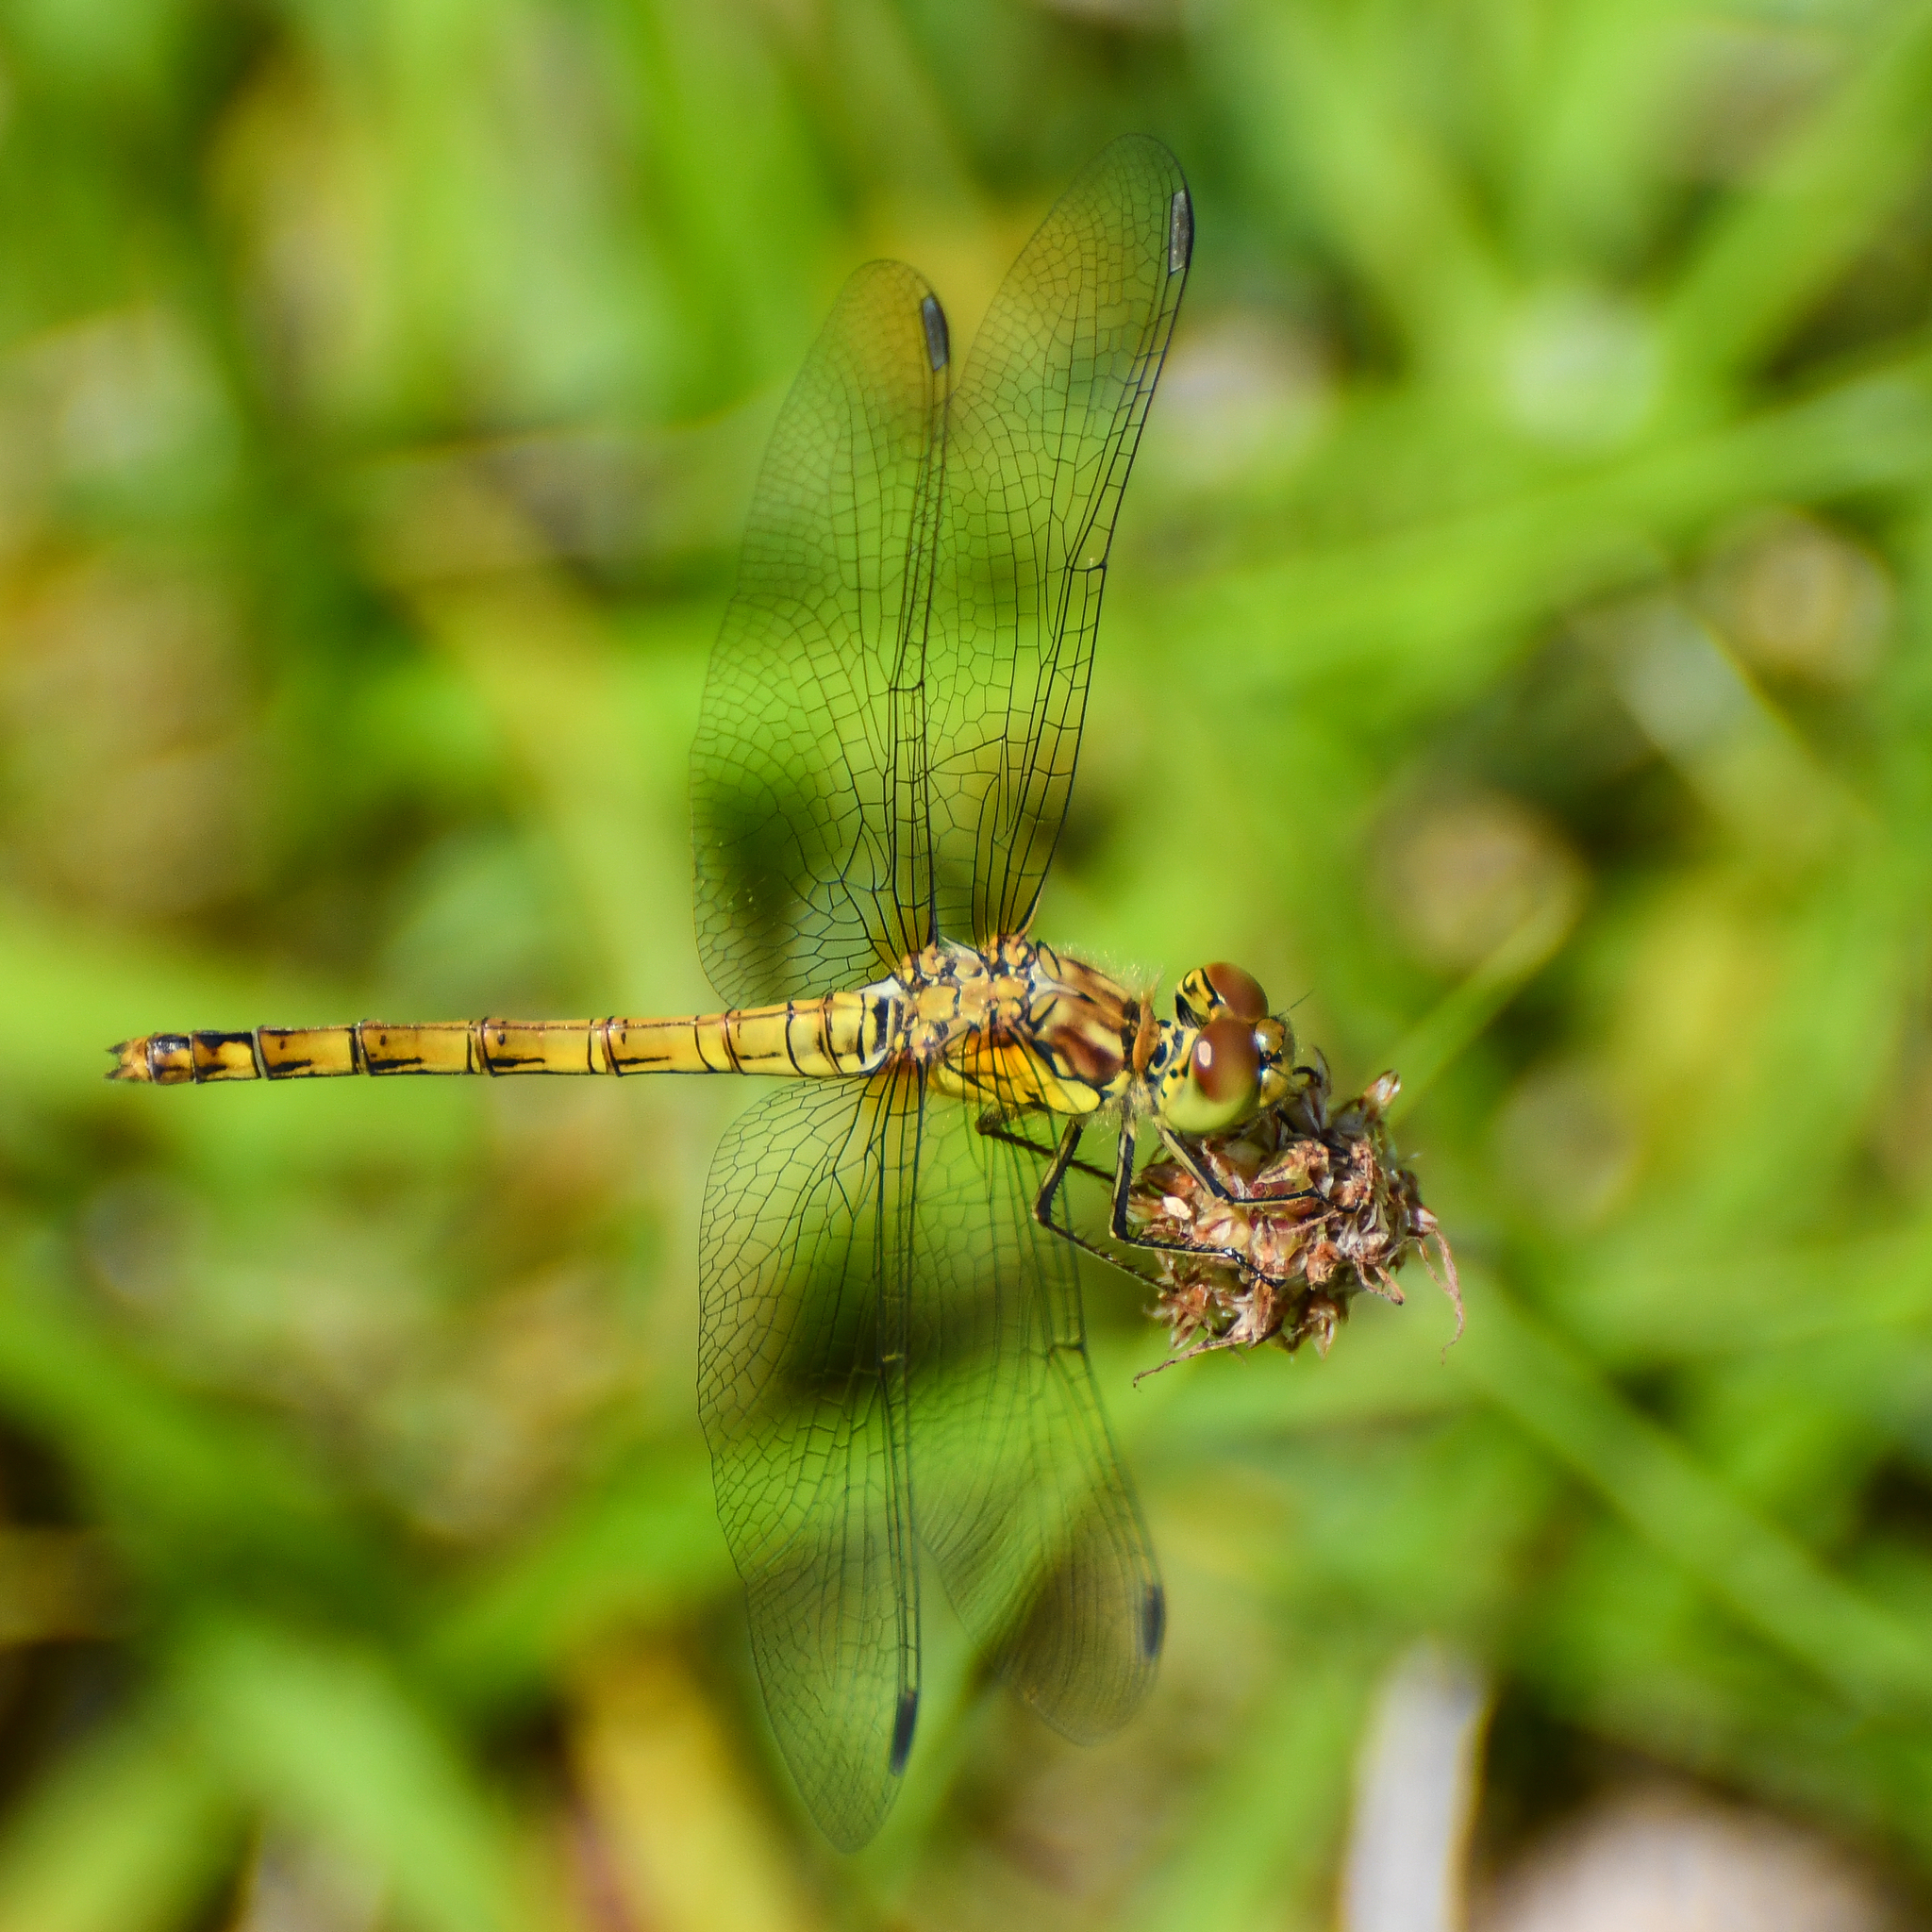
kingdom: Animalia
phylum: Arthropoda
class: Insecta
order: Odonata
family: Libellulidae
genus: Sympetrum
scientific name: Sympetrum striolatum
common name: Common darter
